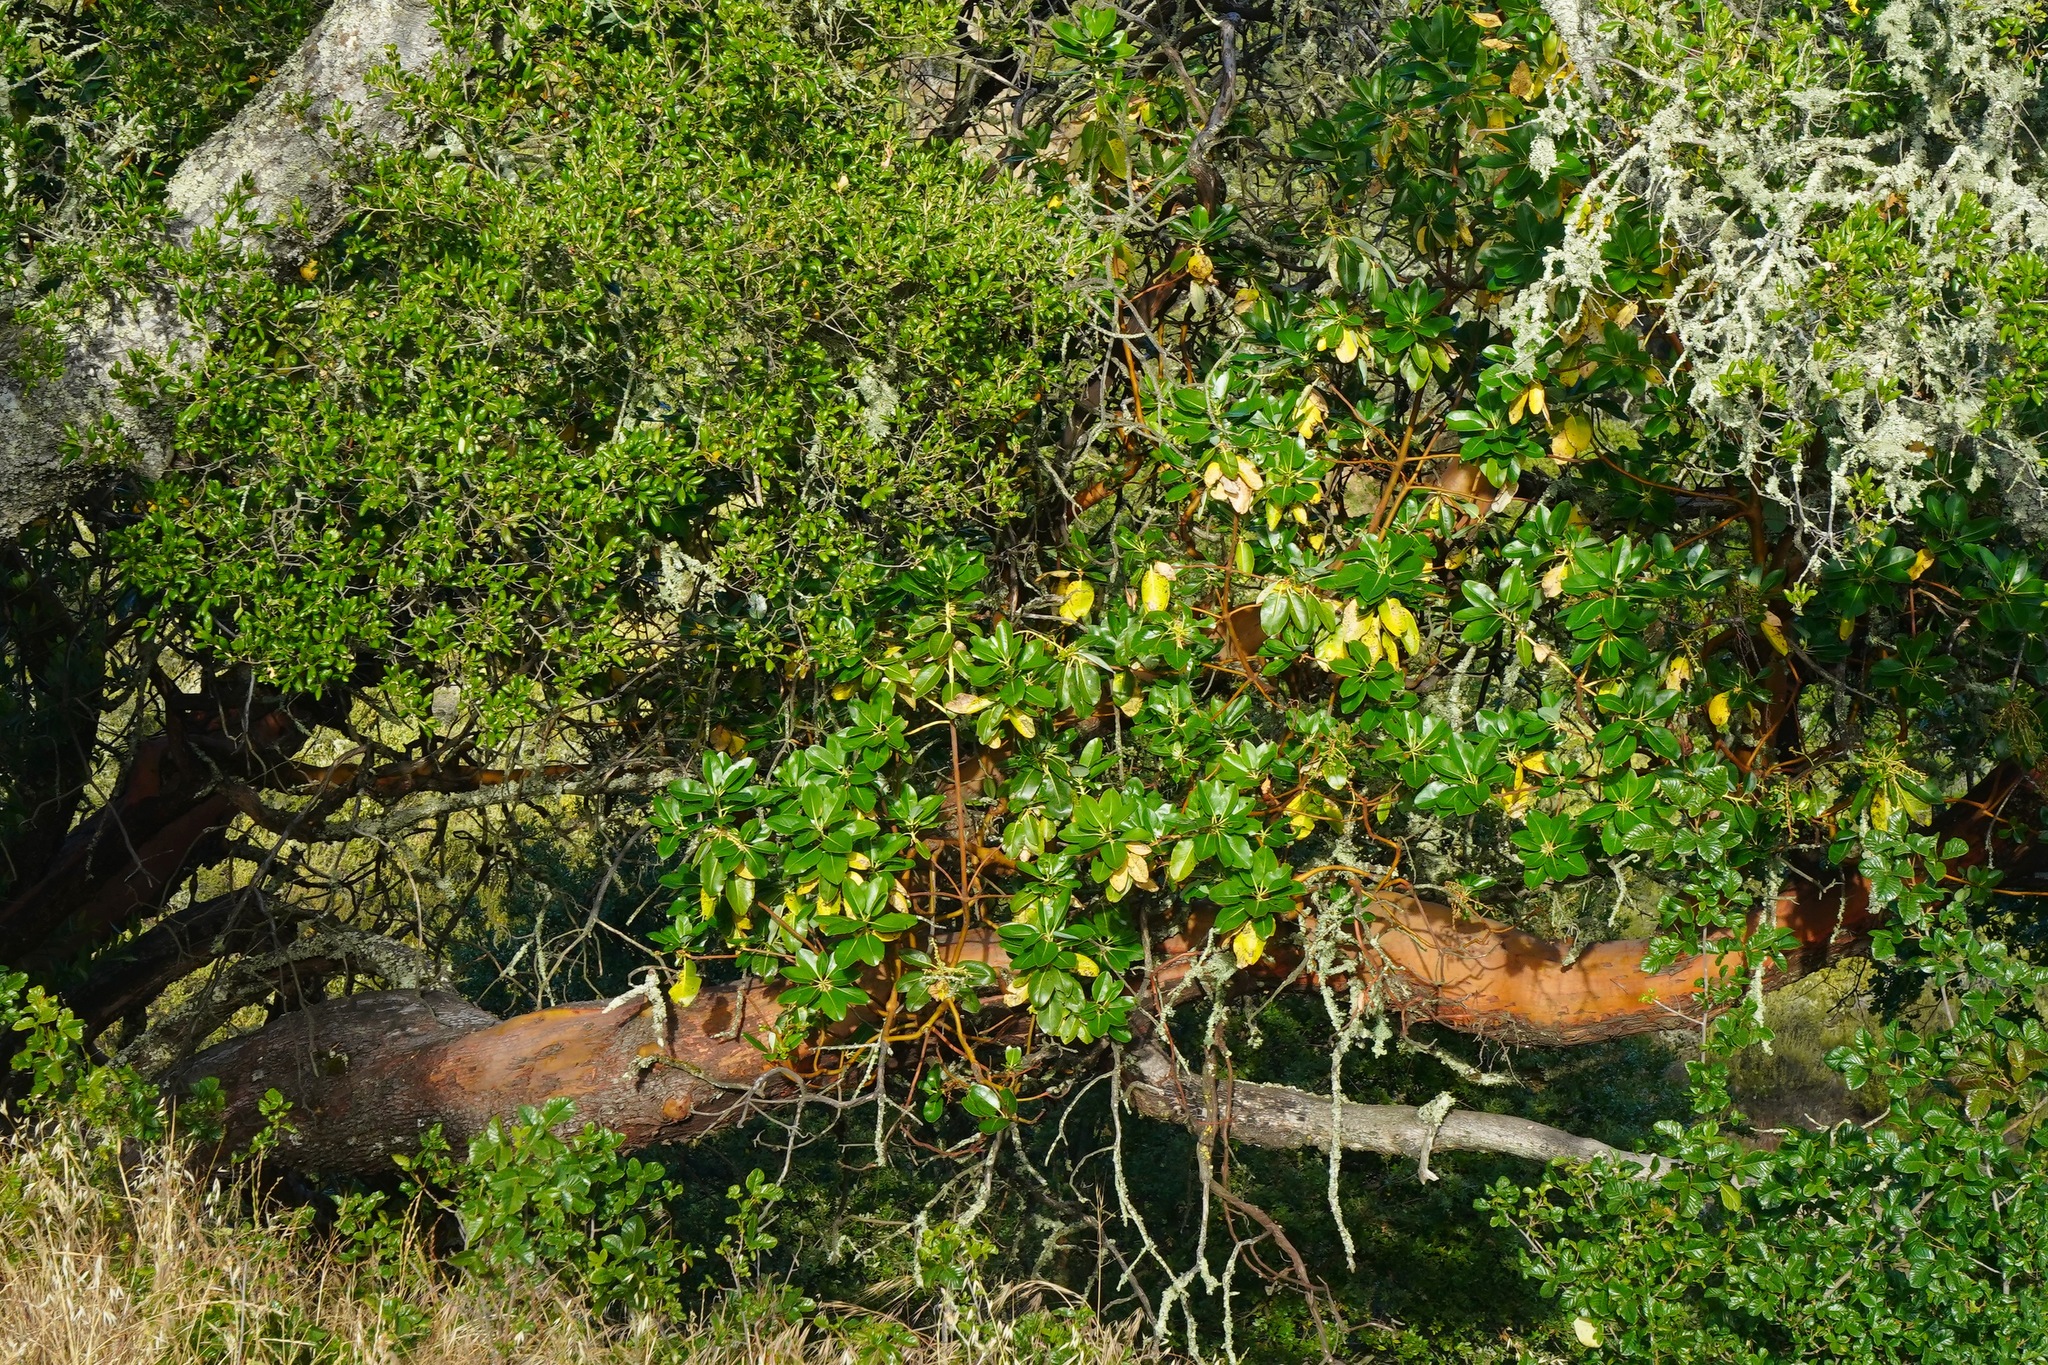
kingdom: Plantae
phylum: Tracheophyta
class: Magnoliopsida
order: Ericales
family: Ericaceae
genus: Arbutus
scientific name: Arbutus menziesii
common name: Pacific madrone
